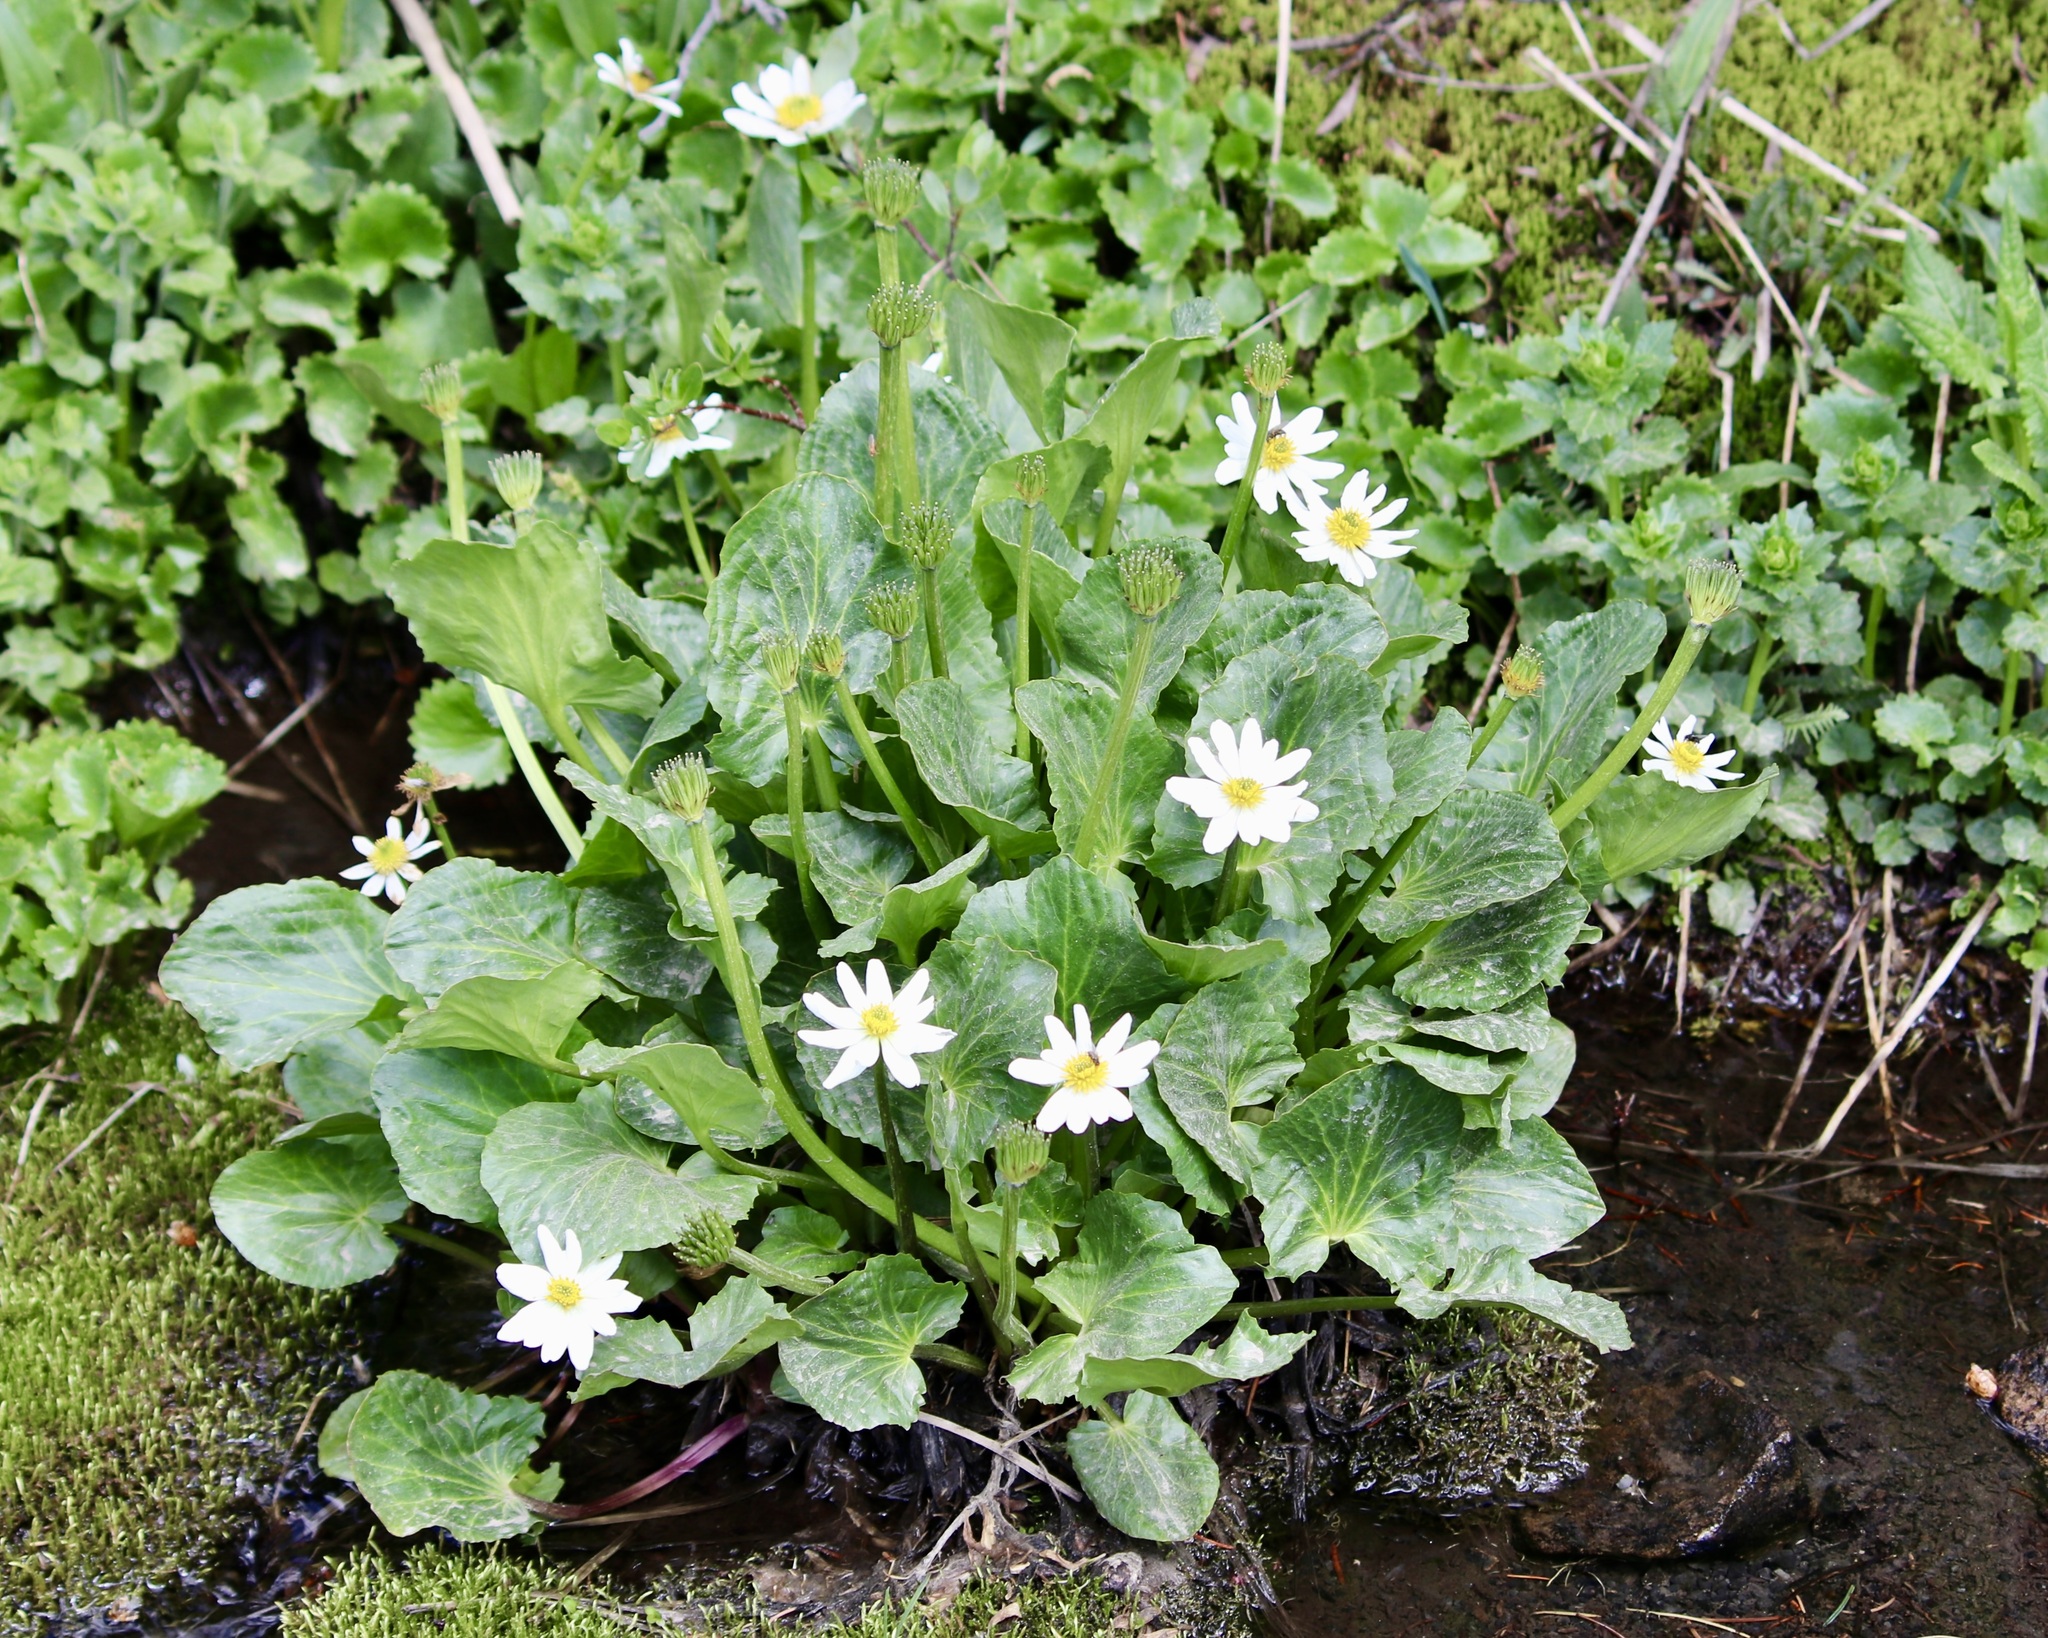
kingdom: Plantae
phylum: Tracheophyta
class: Magnoliopsida
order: Ranunculales
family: Ranunculaceae
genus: Caltha
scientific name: Caltha leptosepala
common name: Elkslip
